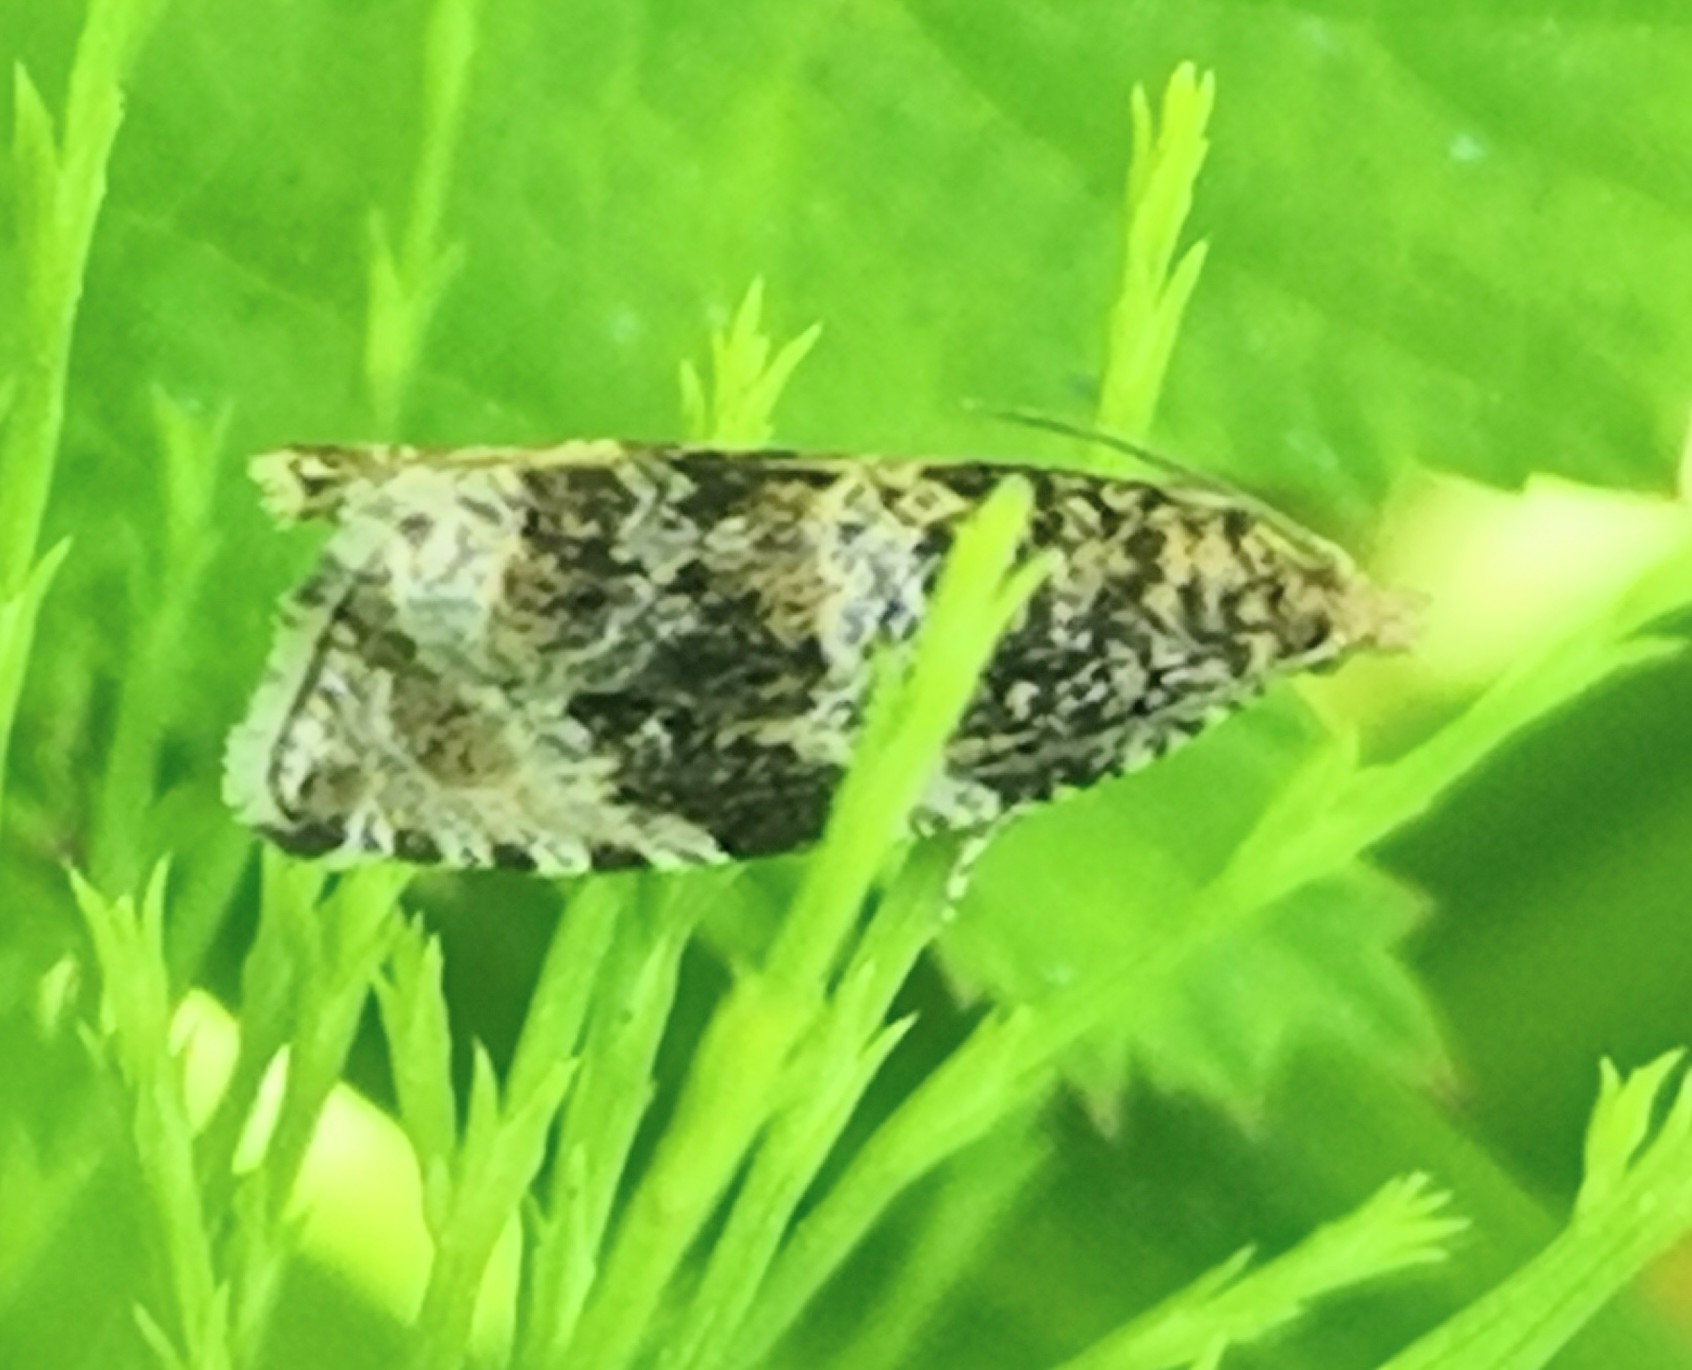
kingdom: Animalia
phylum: Arthropoda
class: Insecta
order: Lepidoptera
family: Tortricidae
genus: Syricoris
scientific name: Syricoris lacunana
